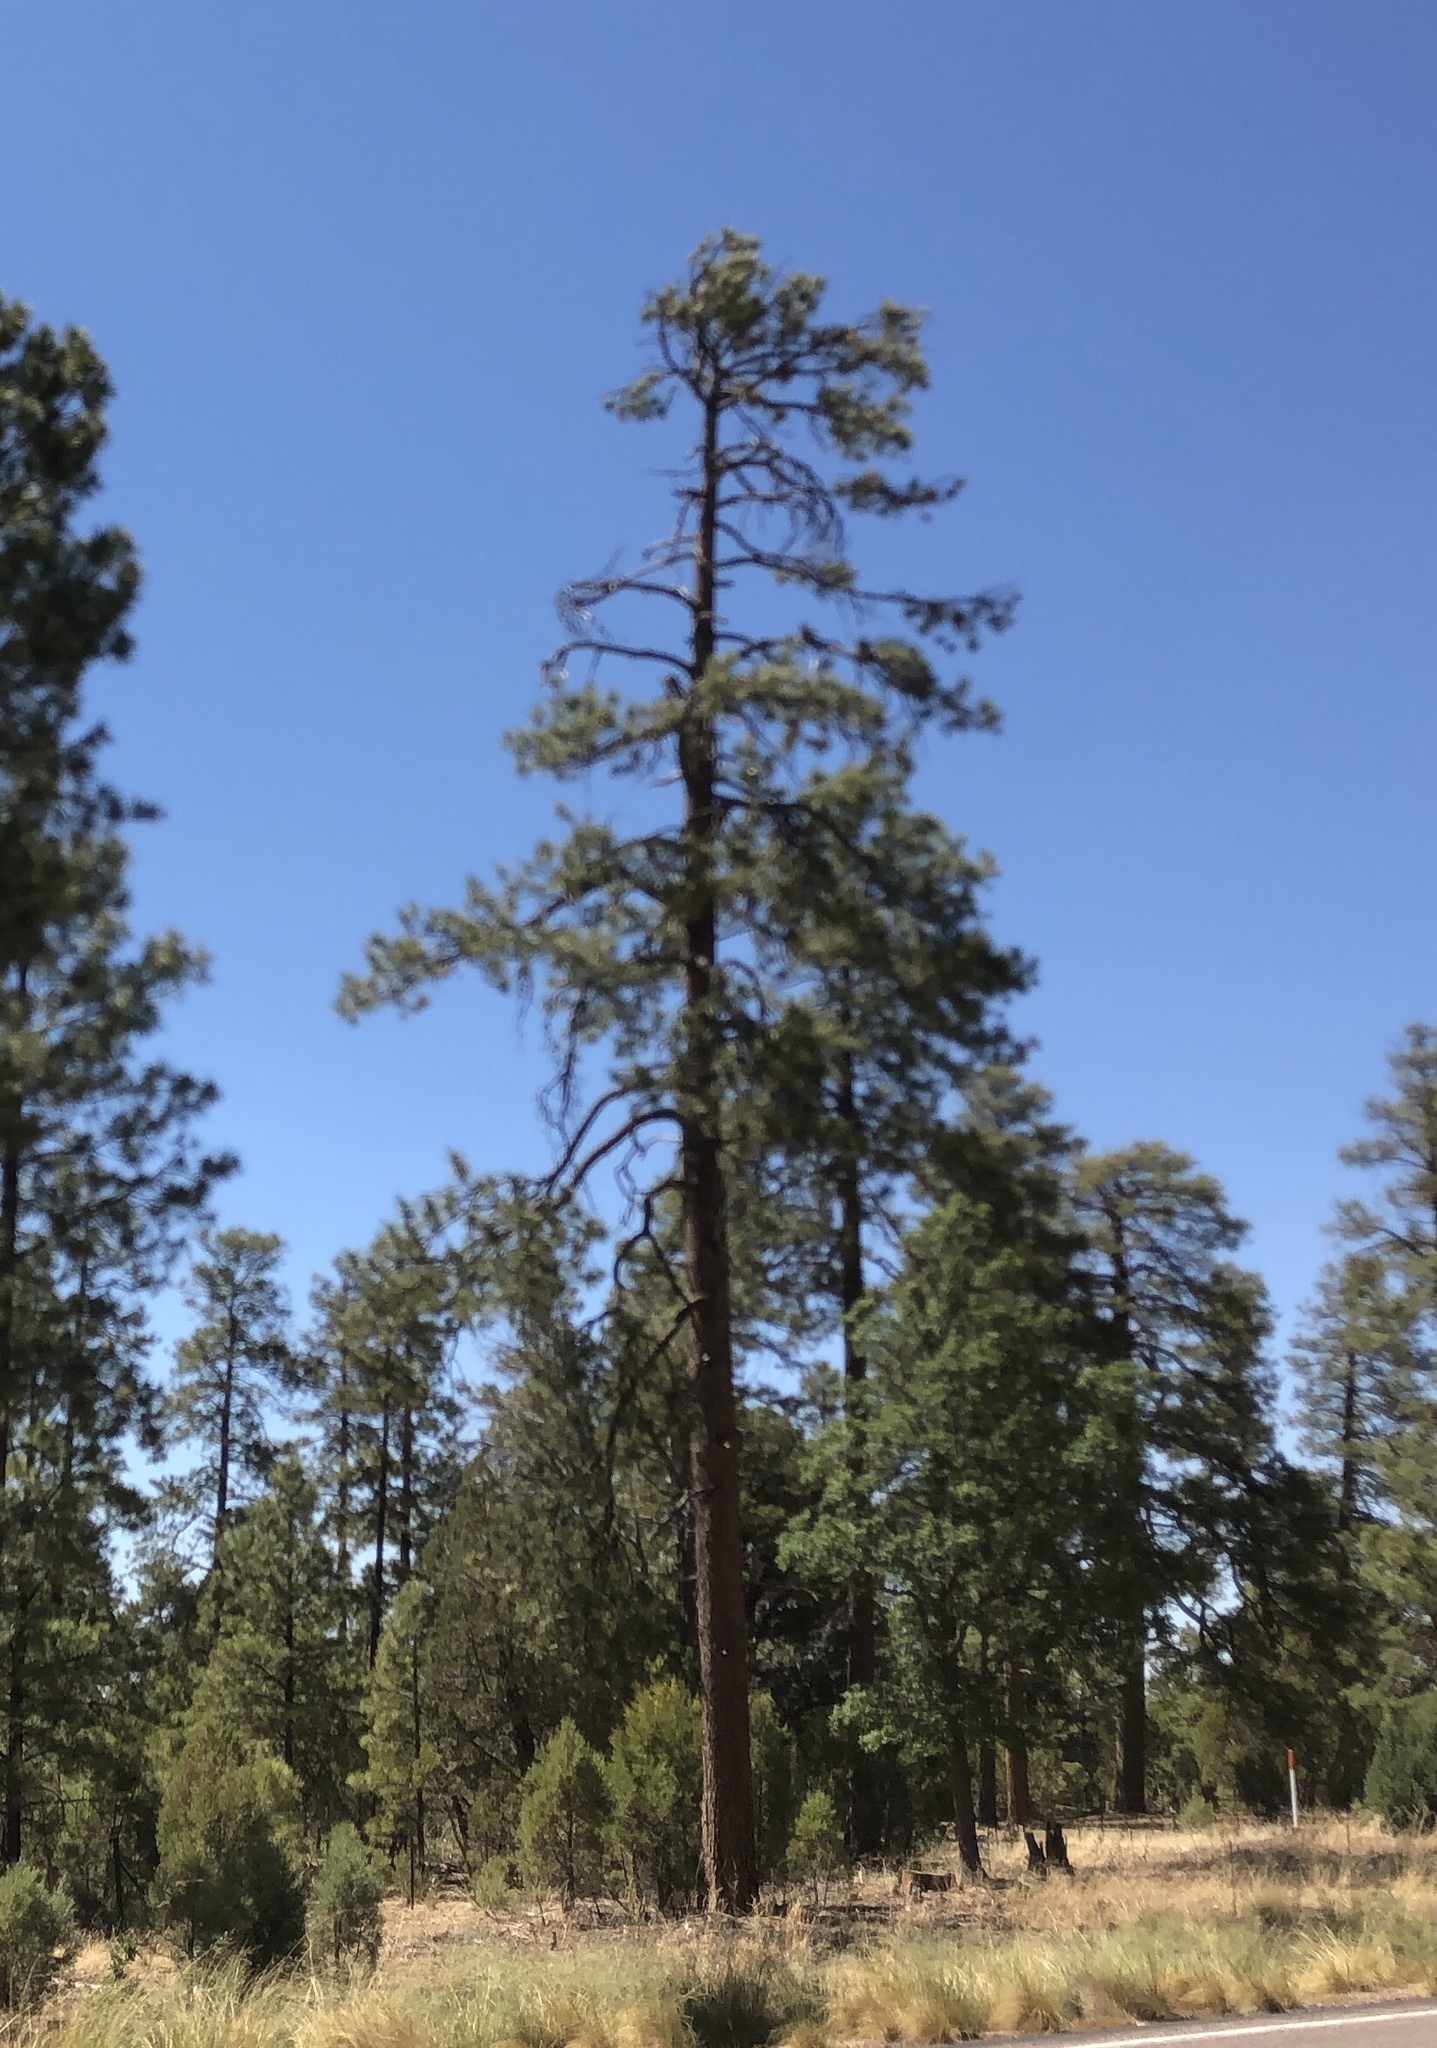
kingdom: Plantae
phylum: Tracheophyta
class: Pinopsida
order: Pinales
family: Pinaceae
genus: Pinus
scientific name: Pinus ponderosa
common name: Western yellow-pine
